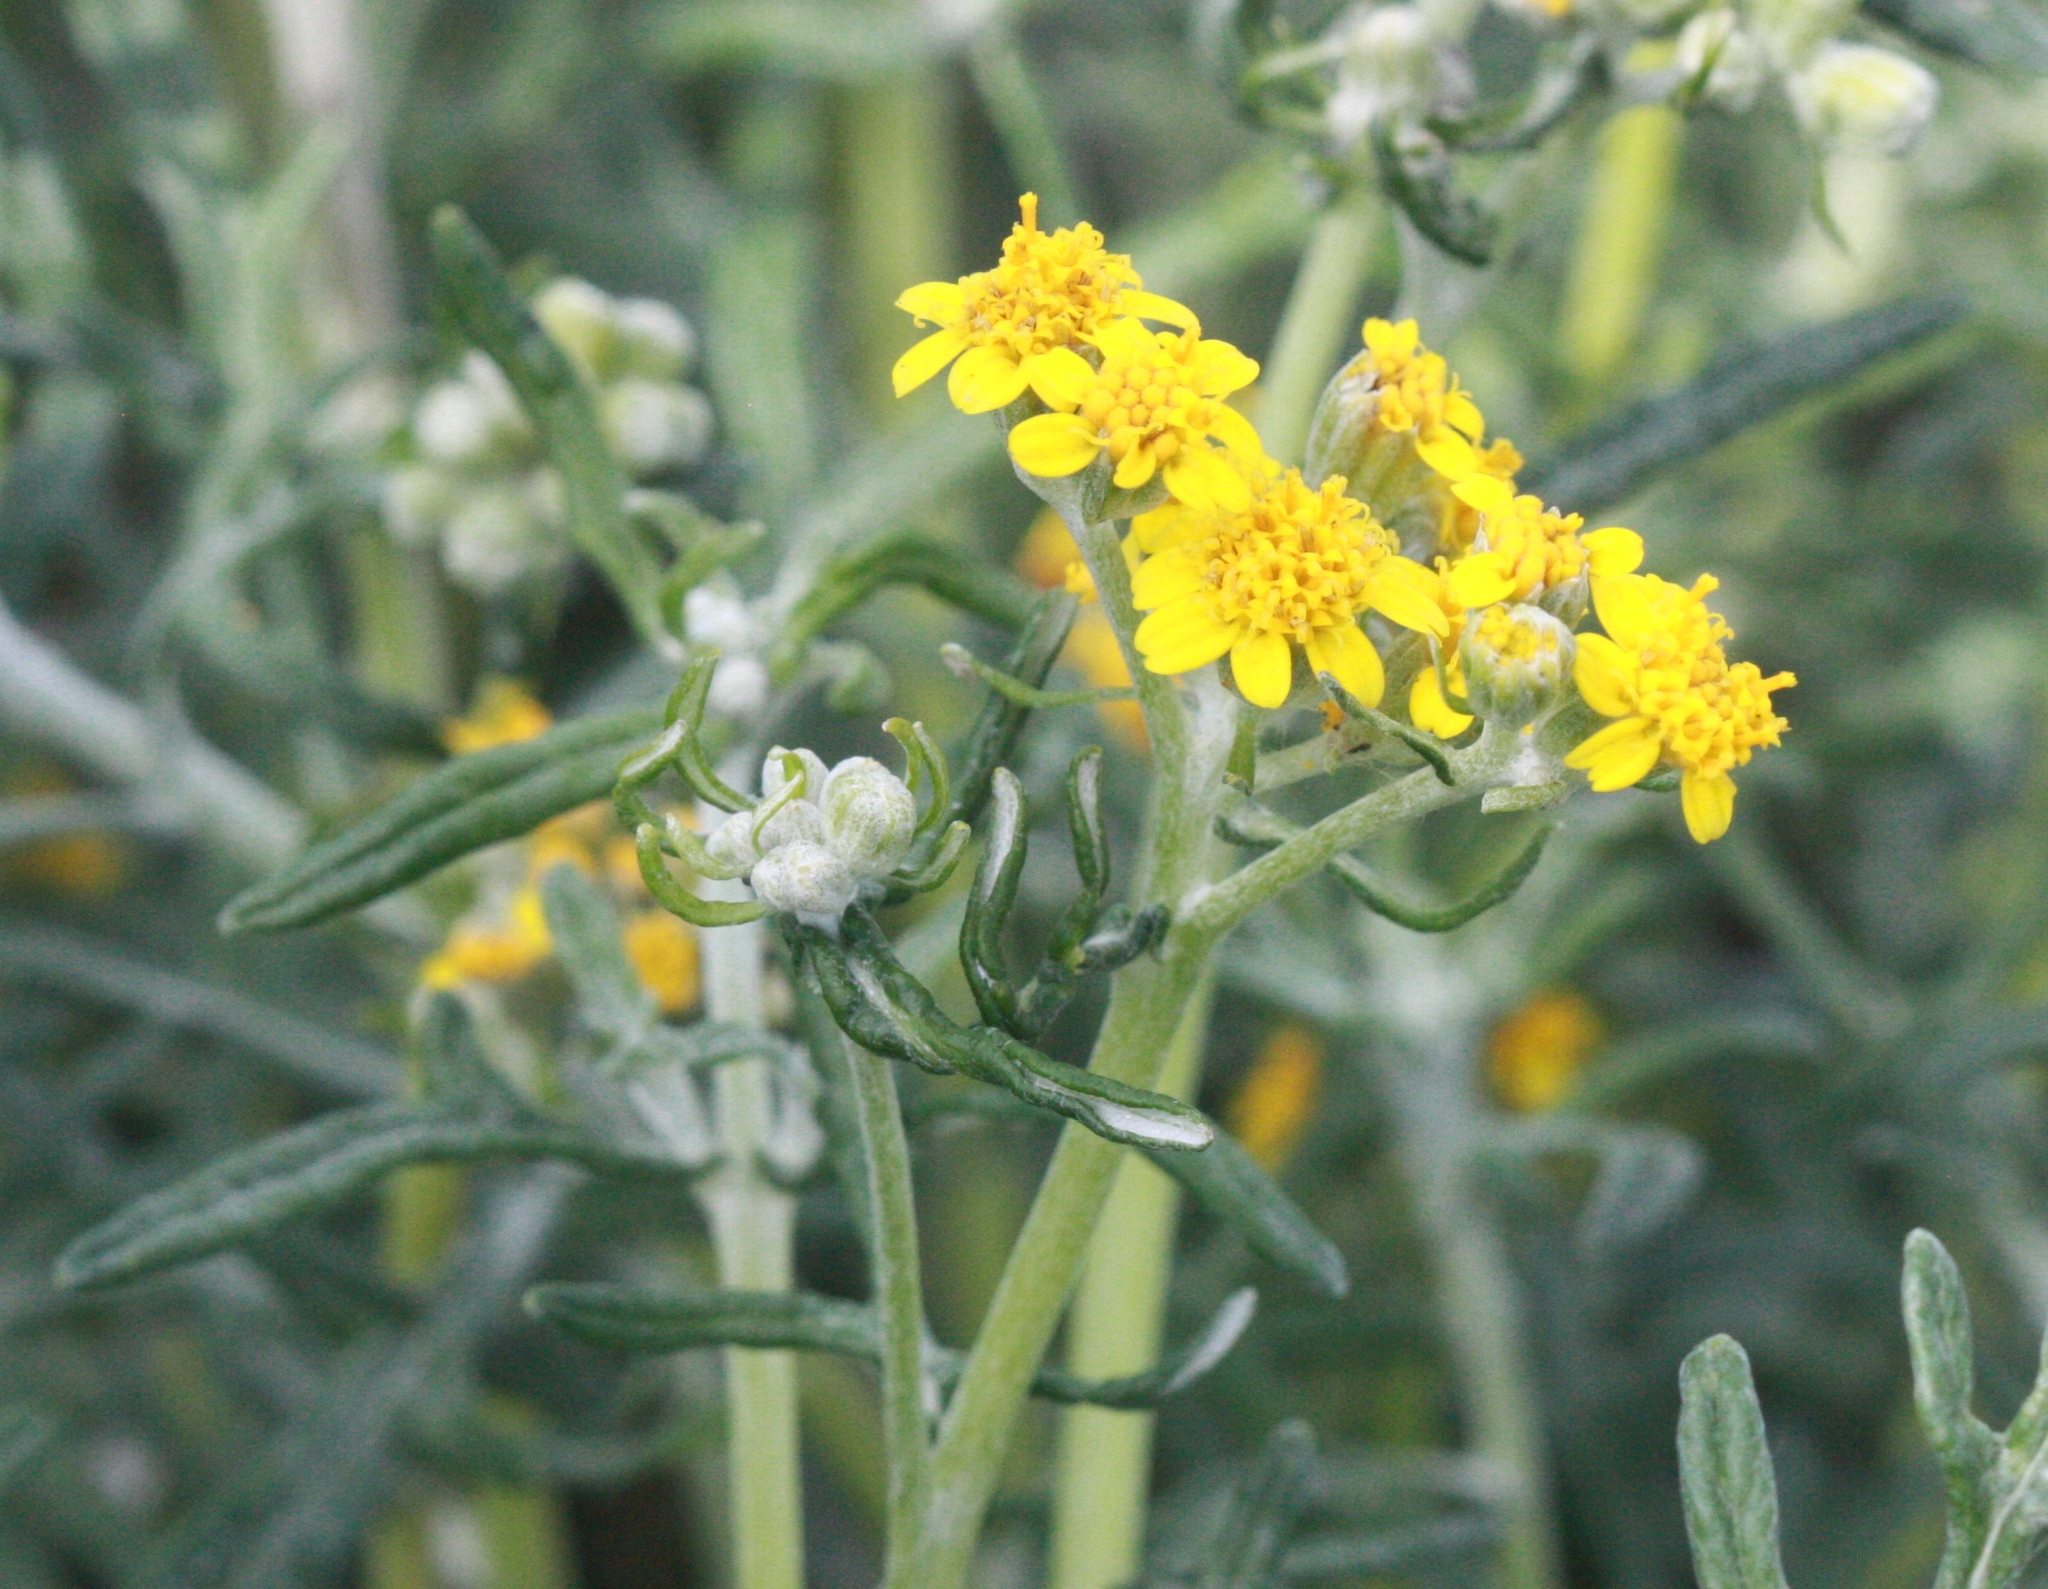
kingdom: Plantae
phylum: Tracheophyta
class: Magnoliopsida
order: Asterales
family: Asteraceae
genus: Eriophyllum
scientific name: Eriophyllum staechadifolium
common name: Lizardtail
